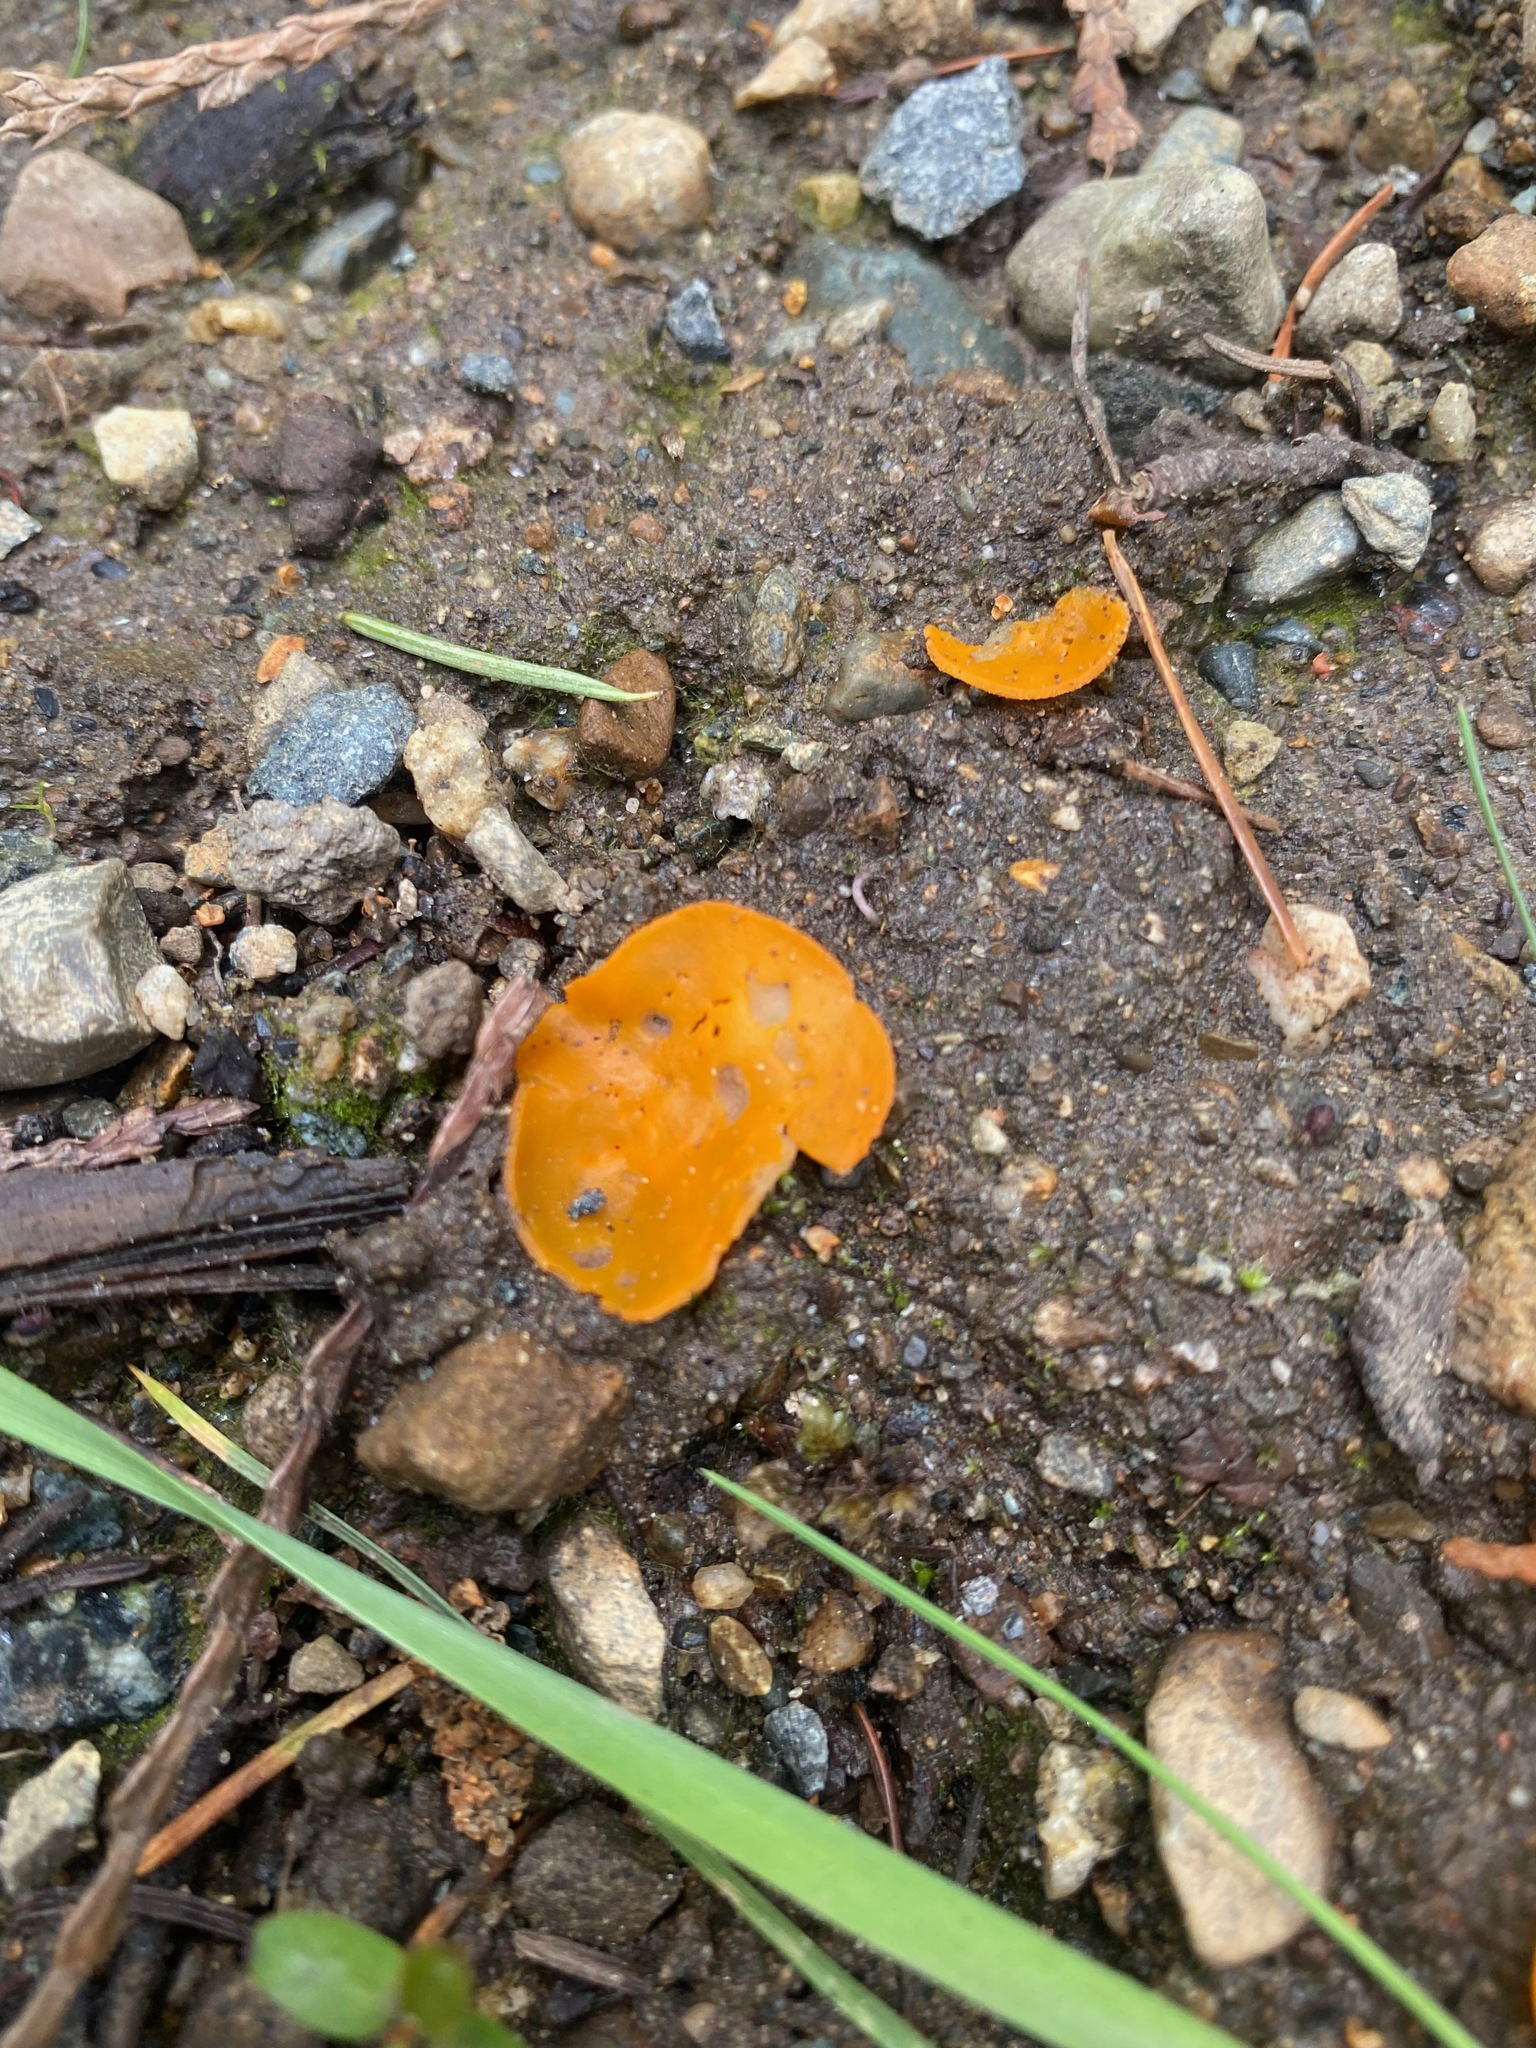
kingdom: Fungi
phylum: Ascomycota
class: Pezizomycetes
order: Pezizales
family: Pyronemataceae
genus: Aleuria
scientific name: Aleuria aurantia
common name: Orange peel fungus
